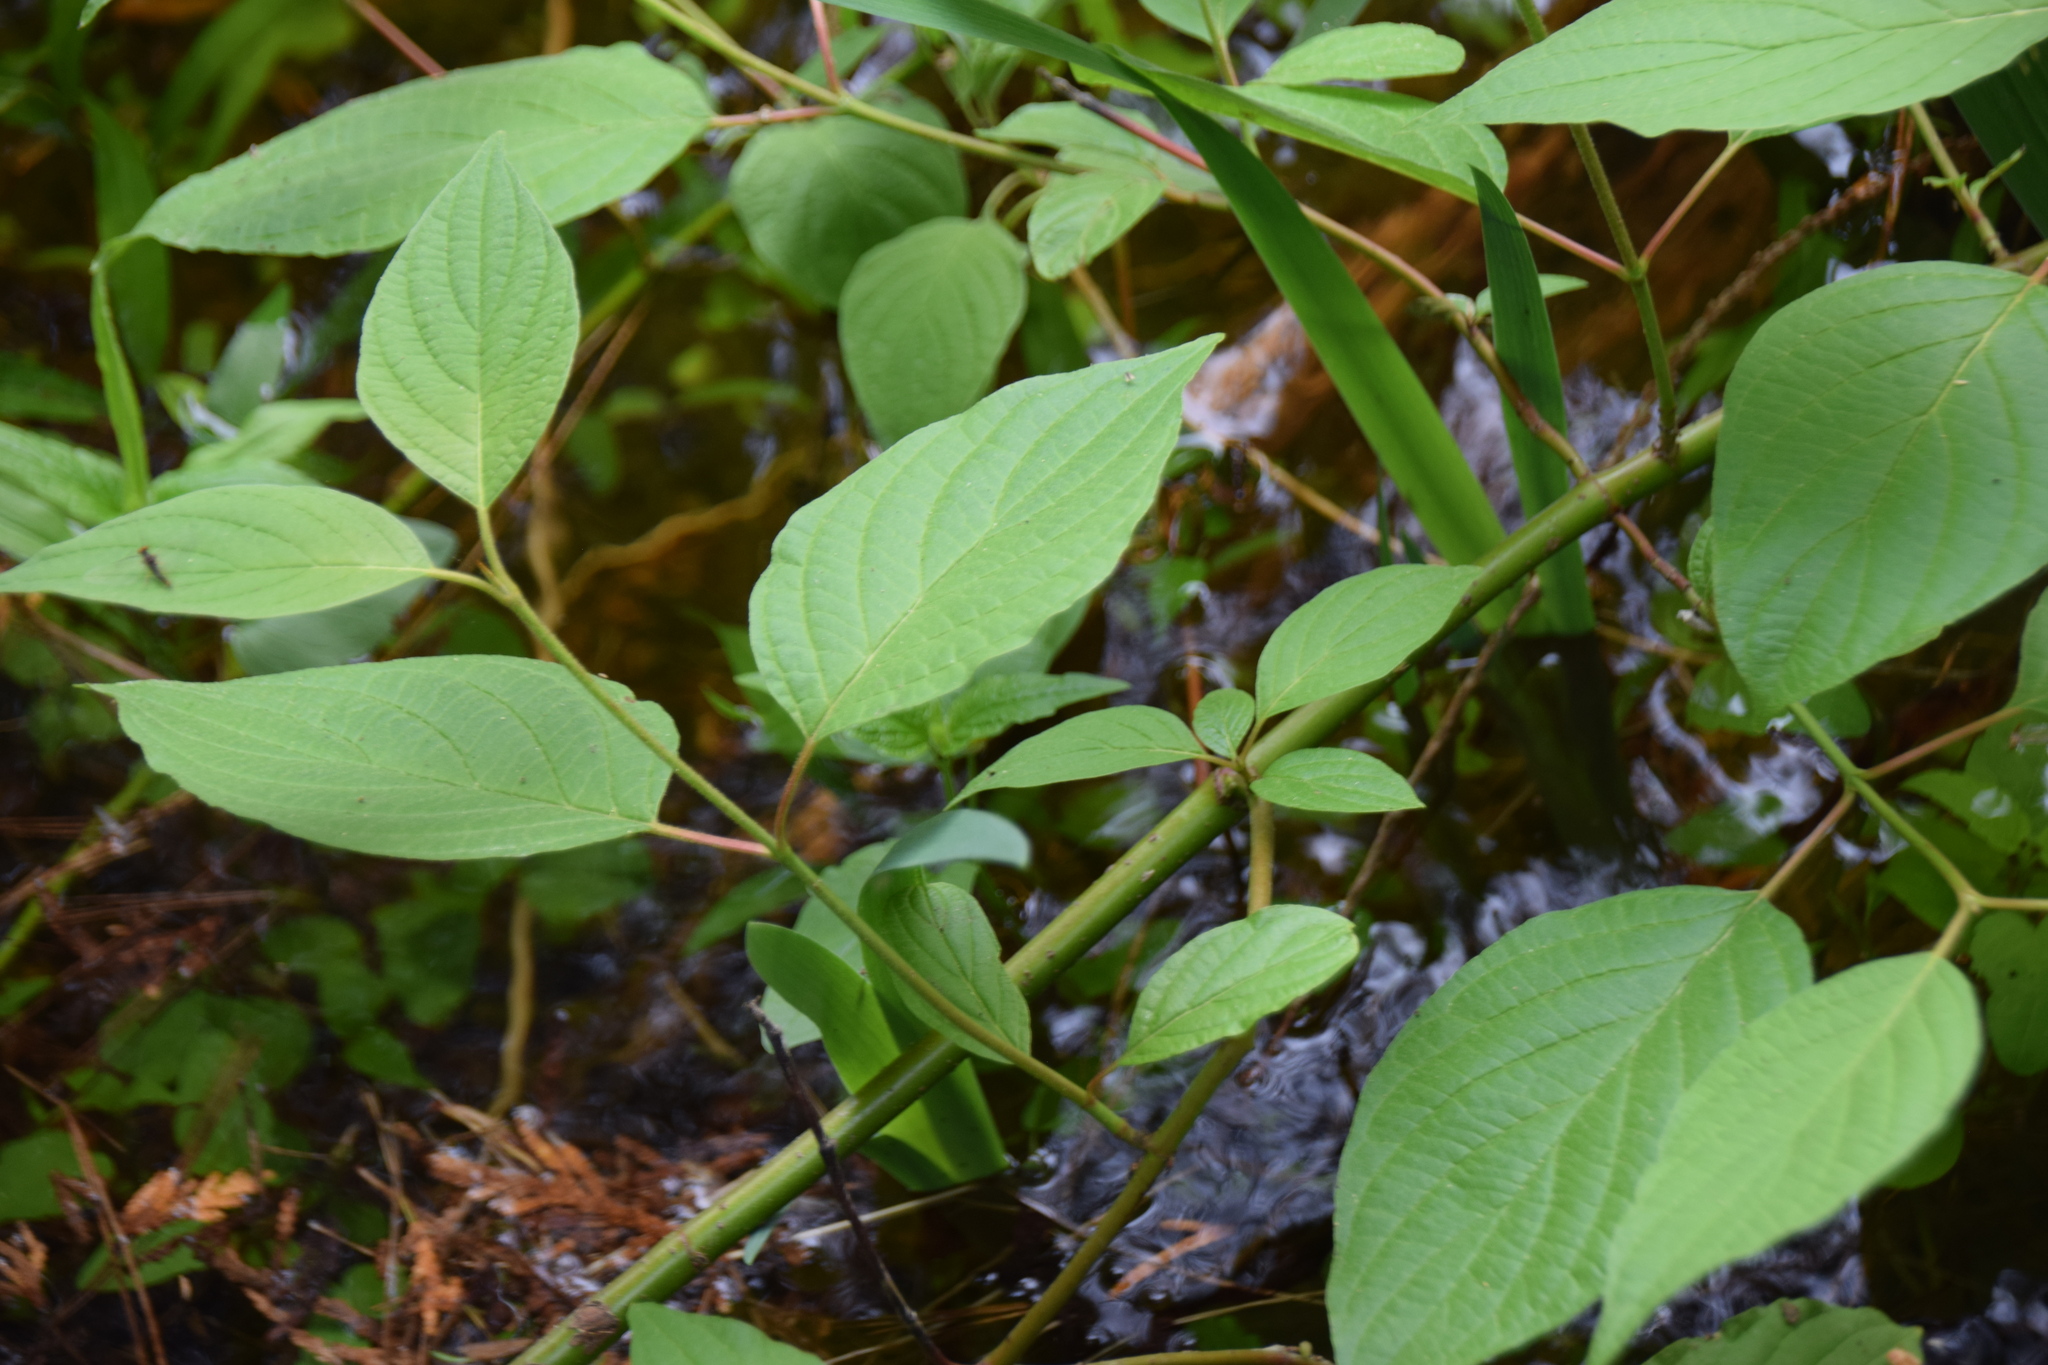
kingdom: Plantae
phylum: Tracheophyta
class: Magnoliopsida
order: Cornales
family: Cornaceae
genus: Cornus
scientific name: Cornus sericea
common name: Red-osier dogwood
